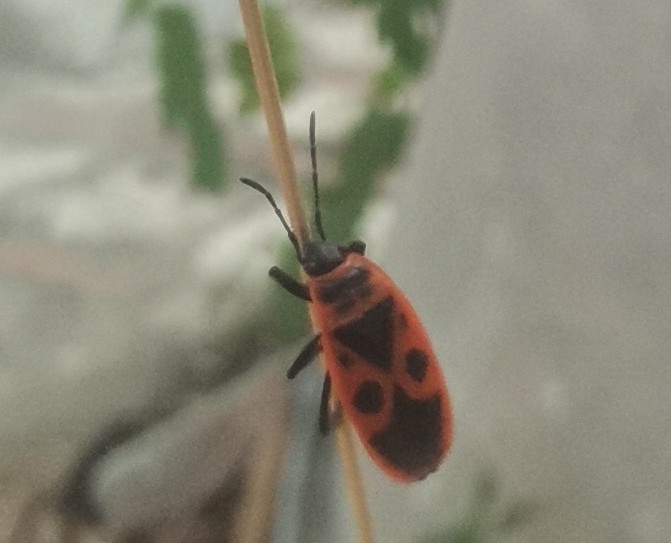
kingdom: Animalia
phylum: Arthropoda
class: Insecta
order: Hemiptera
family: Pyrrhocoridae
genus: Pyrrhocoris
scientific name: Pyrrhocoris apterus
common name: Firebug
